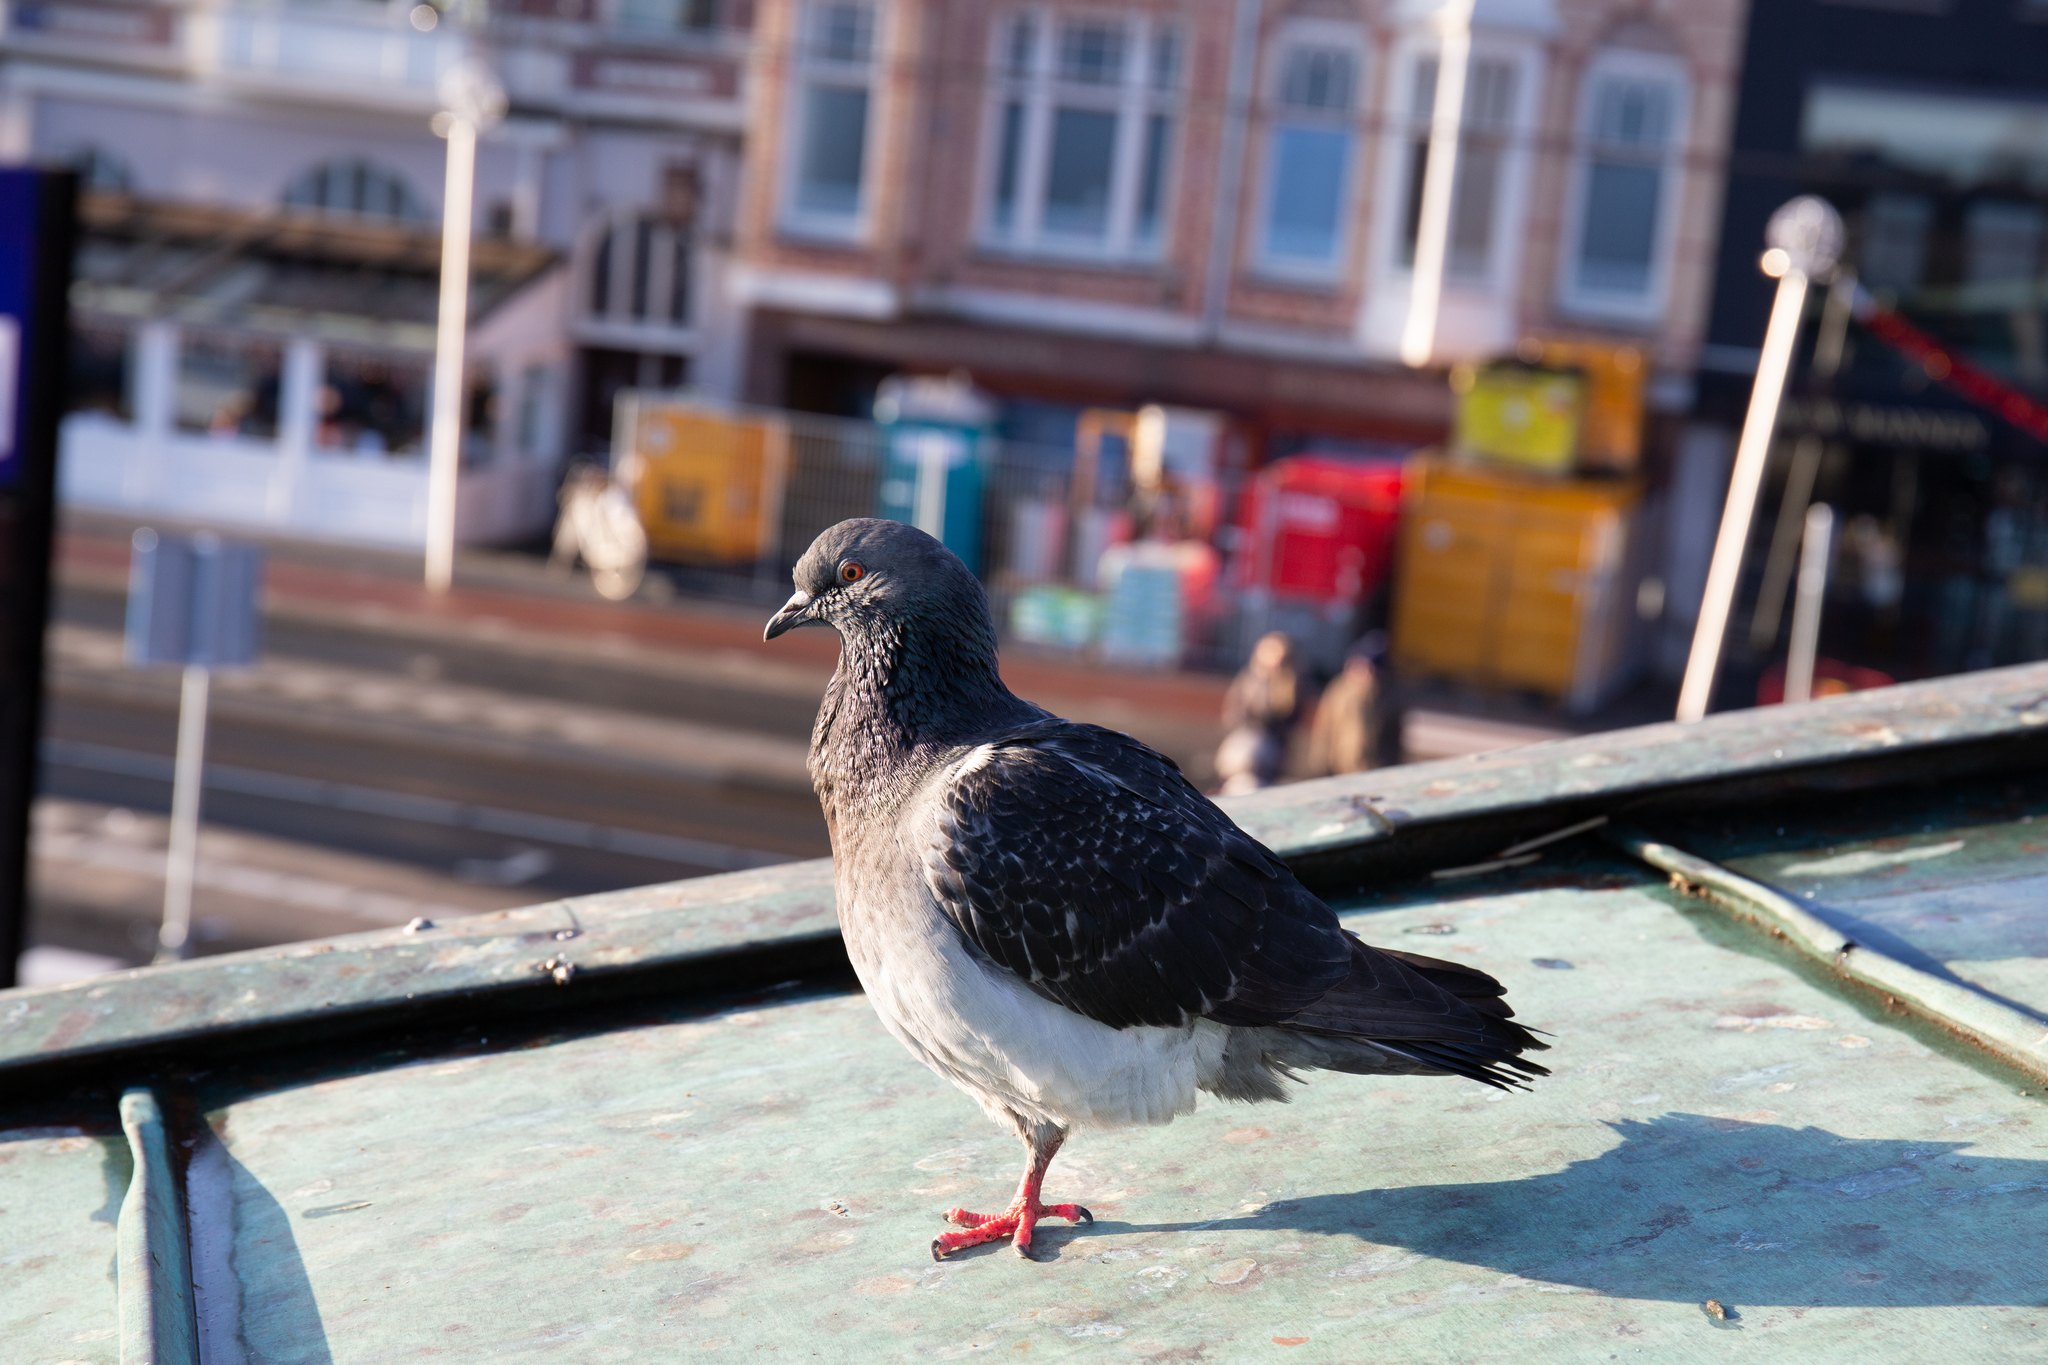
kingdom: Animalia
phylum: Chordata
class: Aves
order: Columbiformes
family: Columbidae
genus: Columba
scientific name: Columba livia
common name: Rock pigeon
